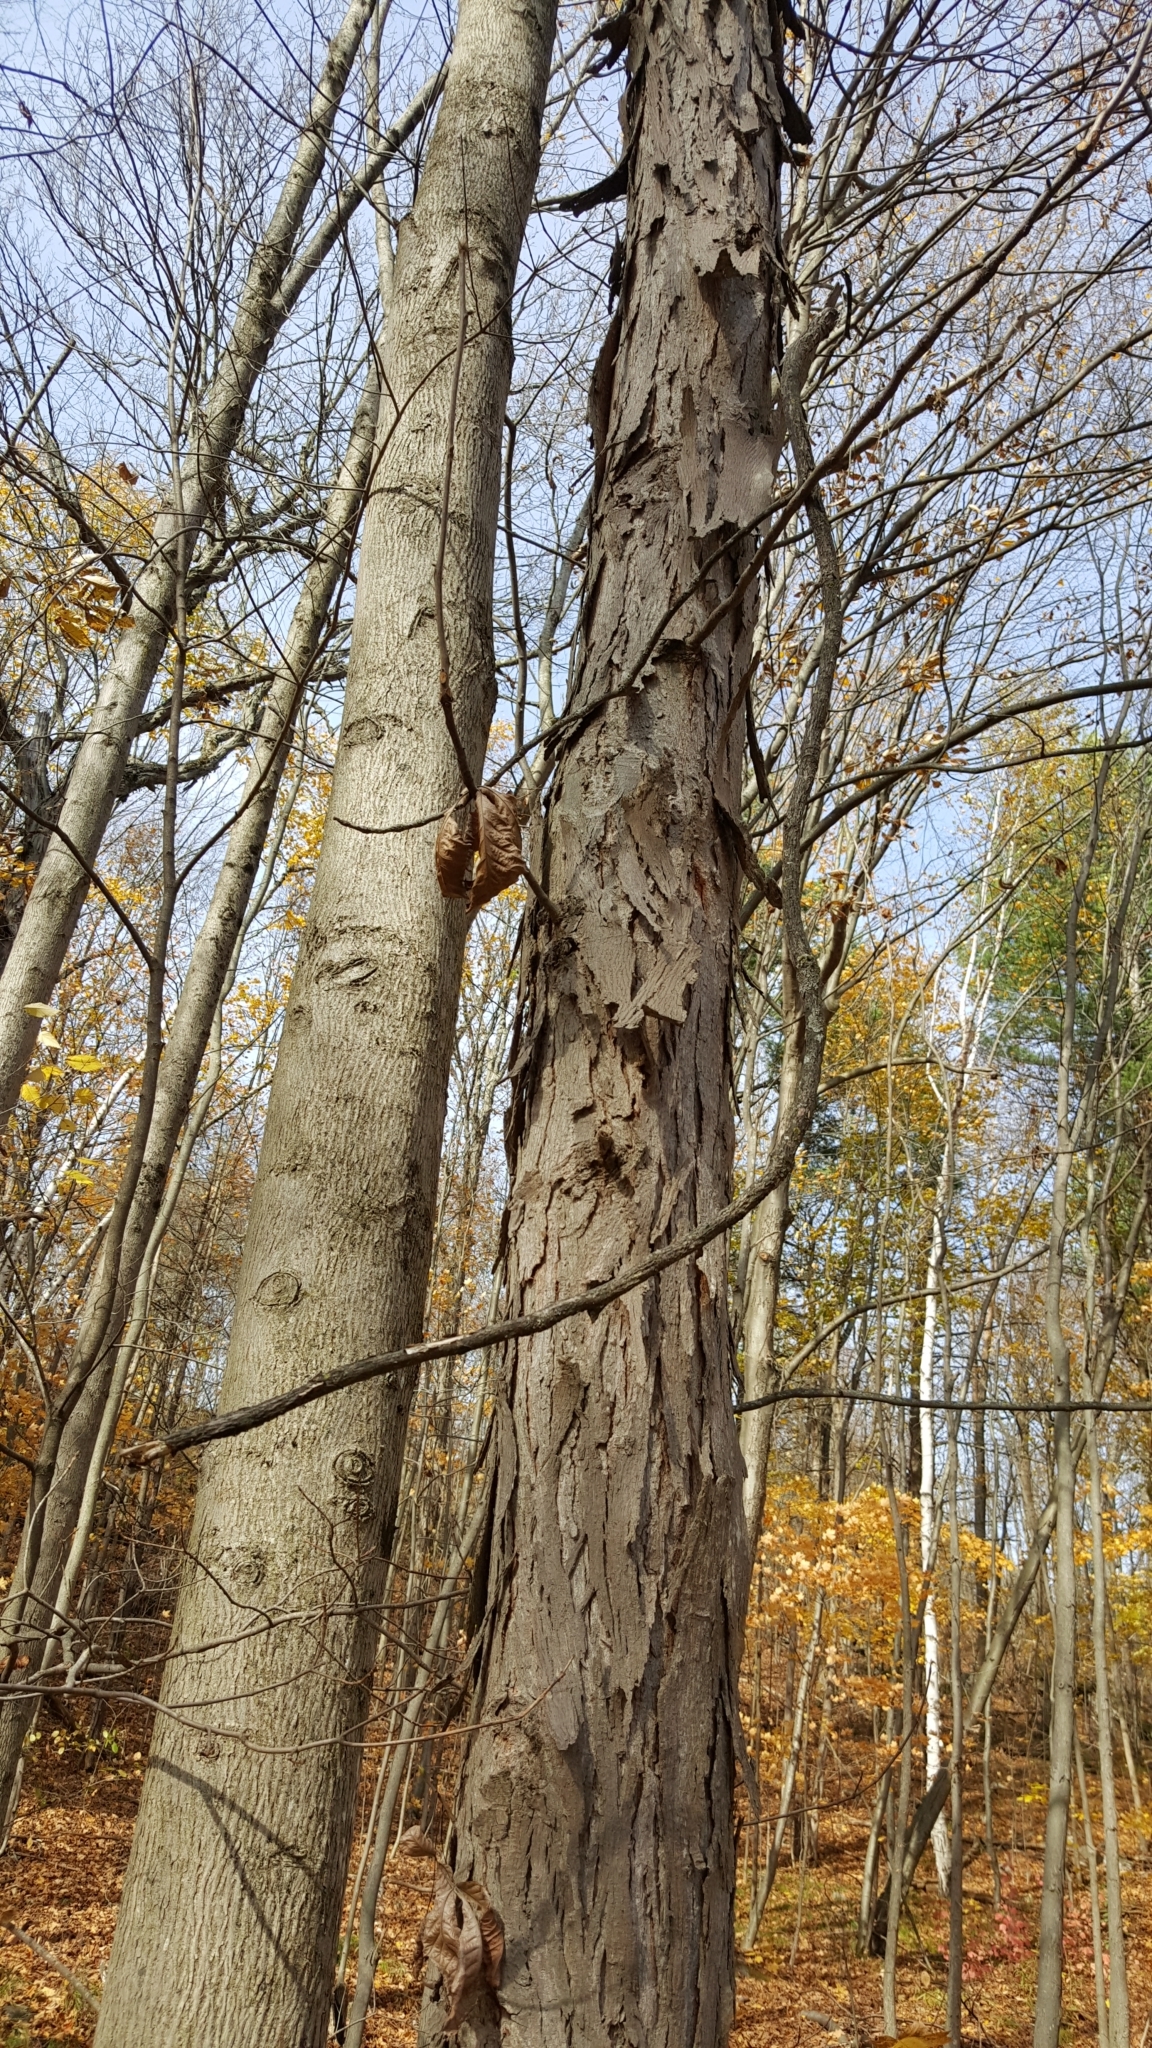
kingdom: Plantae
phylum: Tracheophyta
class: Magnoliopsida
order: Fagales
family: Juglandaceae
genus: Carya
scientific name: Carya ovata
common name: Shagbark hickory
